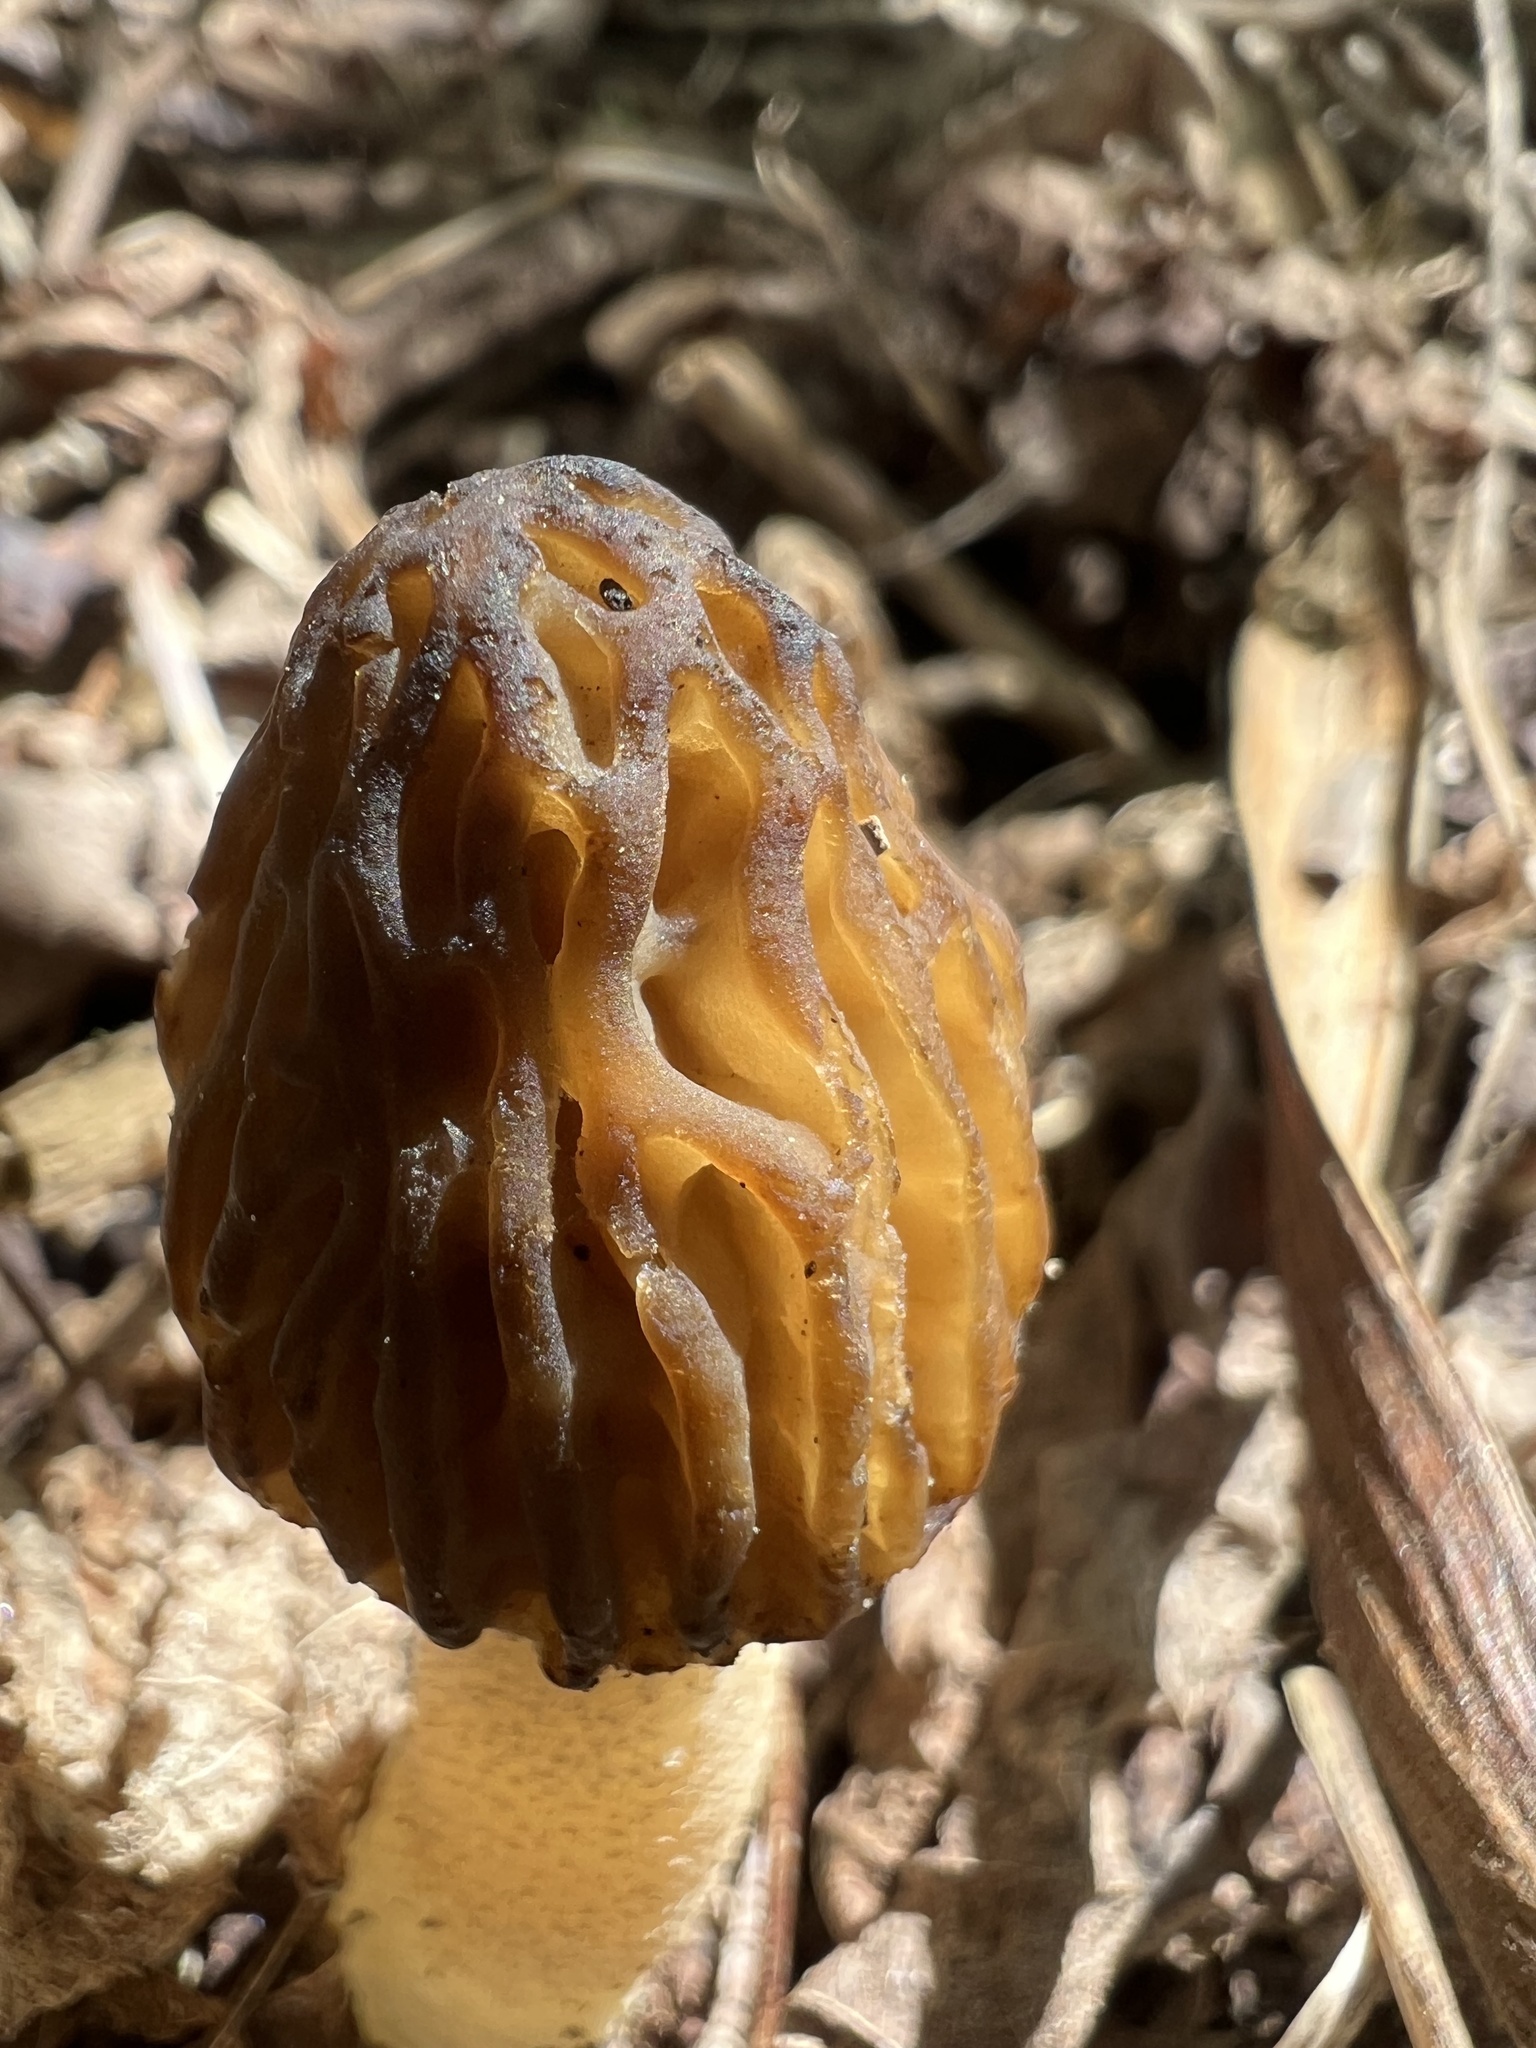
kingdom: Fungi
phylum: Ascomycota
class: Pezizomycetes
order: Pezizales
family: Morchellaceae
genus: Morchella
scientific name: Morchella punctipes
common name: Half-free morel
